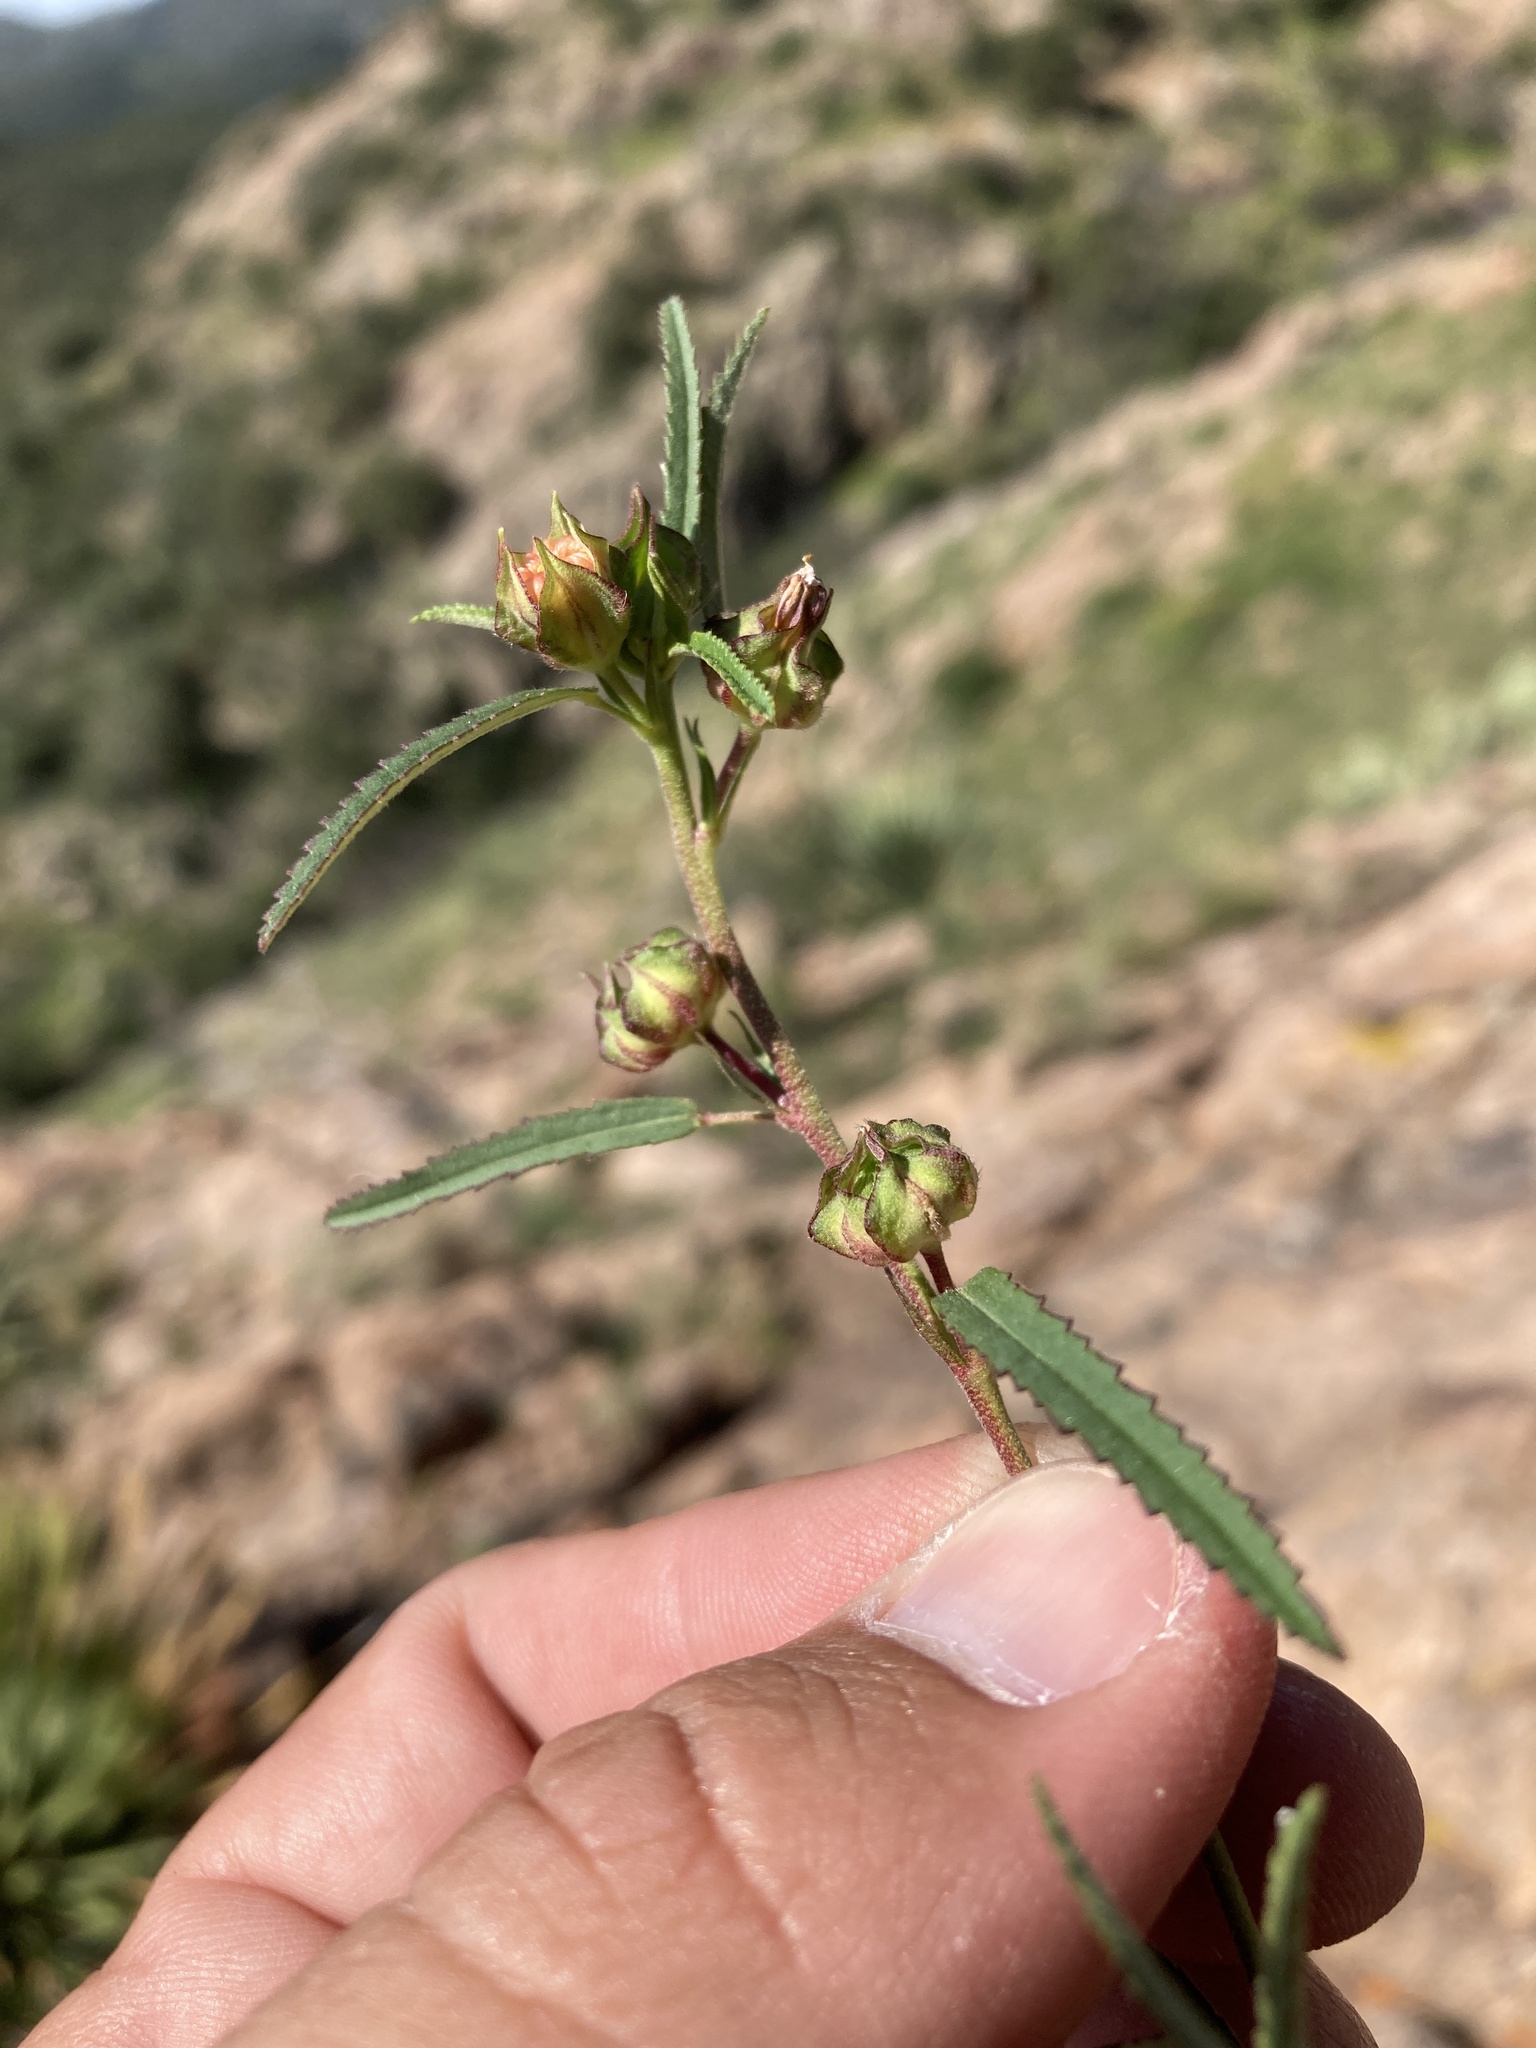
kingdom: Plantae
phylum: Tracheophyta
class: Magnoliopsida
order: Malvales
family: Malvaceae
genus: Sida
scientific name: Sida neomexicana
